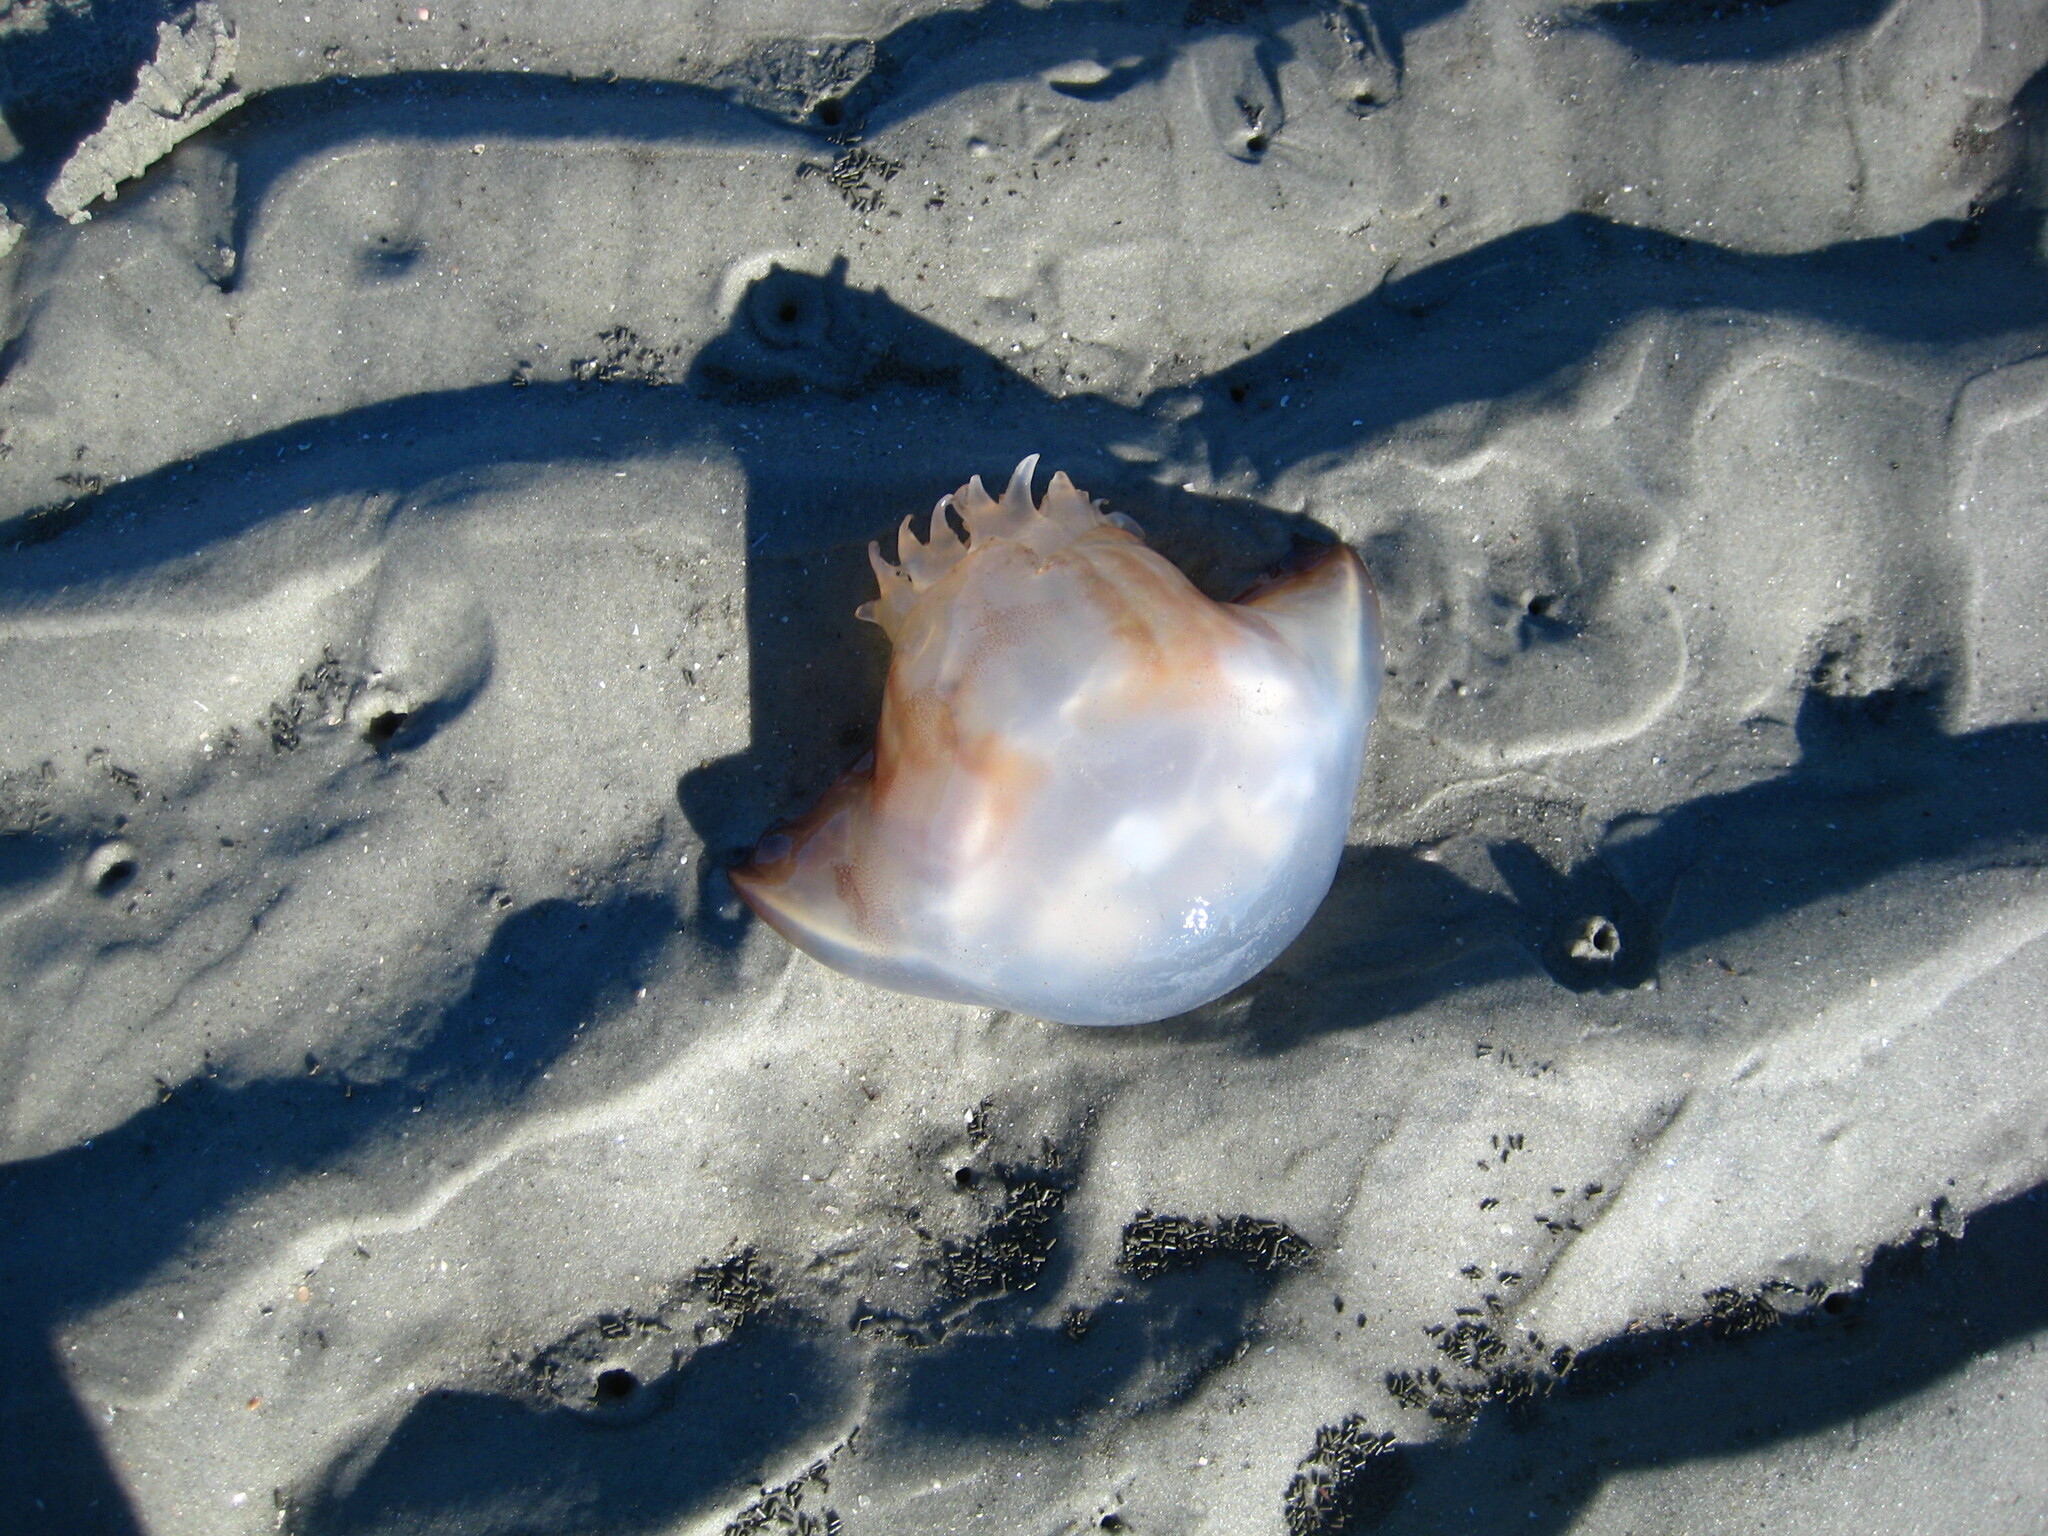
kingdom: Animalia
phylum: Cnidaria
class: Scyphozoa
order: Rhizostomeae
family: Stomolophidae
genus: Stomolophus
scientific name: Stomolophus meleagris
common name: Cabbagehead
